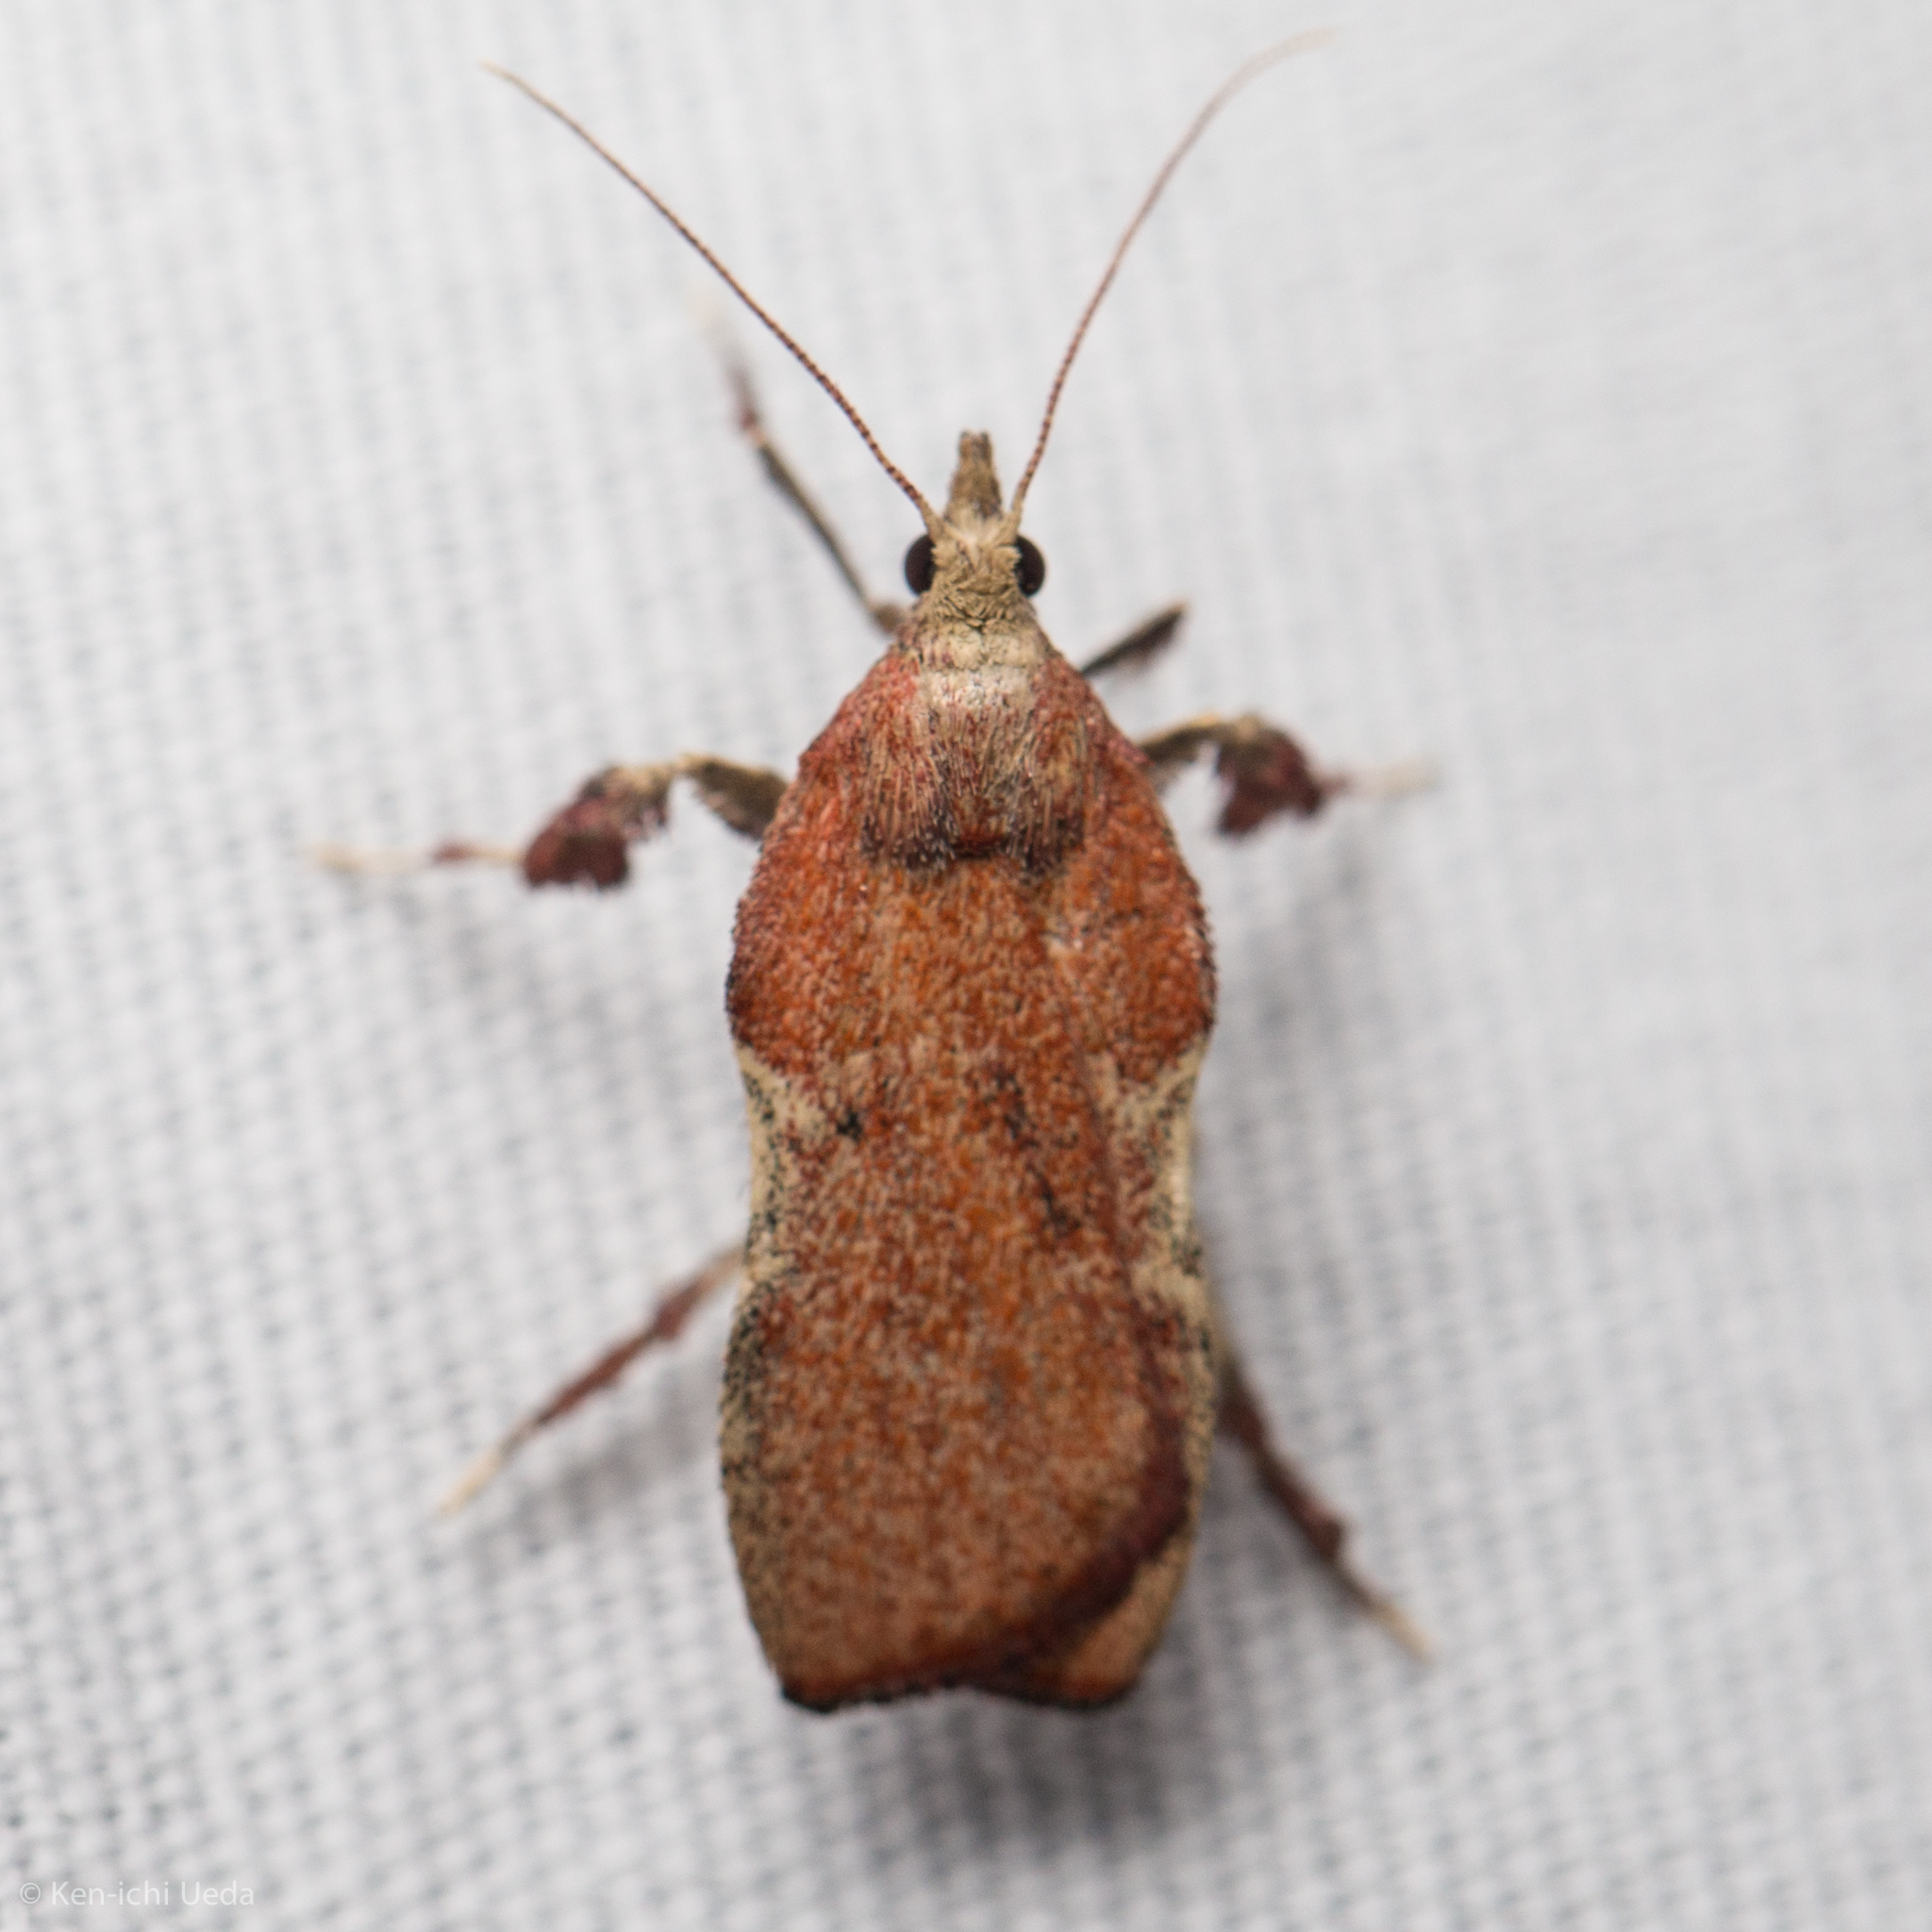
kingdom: Animalia
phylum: Arthropoda
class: Insecta
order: Lepidoptera
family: Pyralidae
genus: Galasa
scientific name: Galasa nigripunctalis
